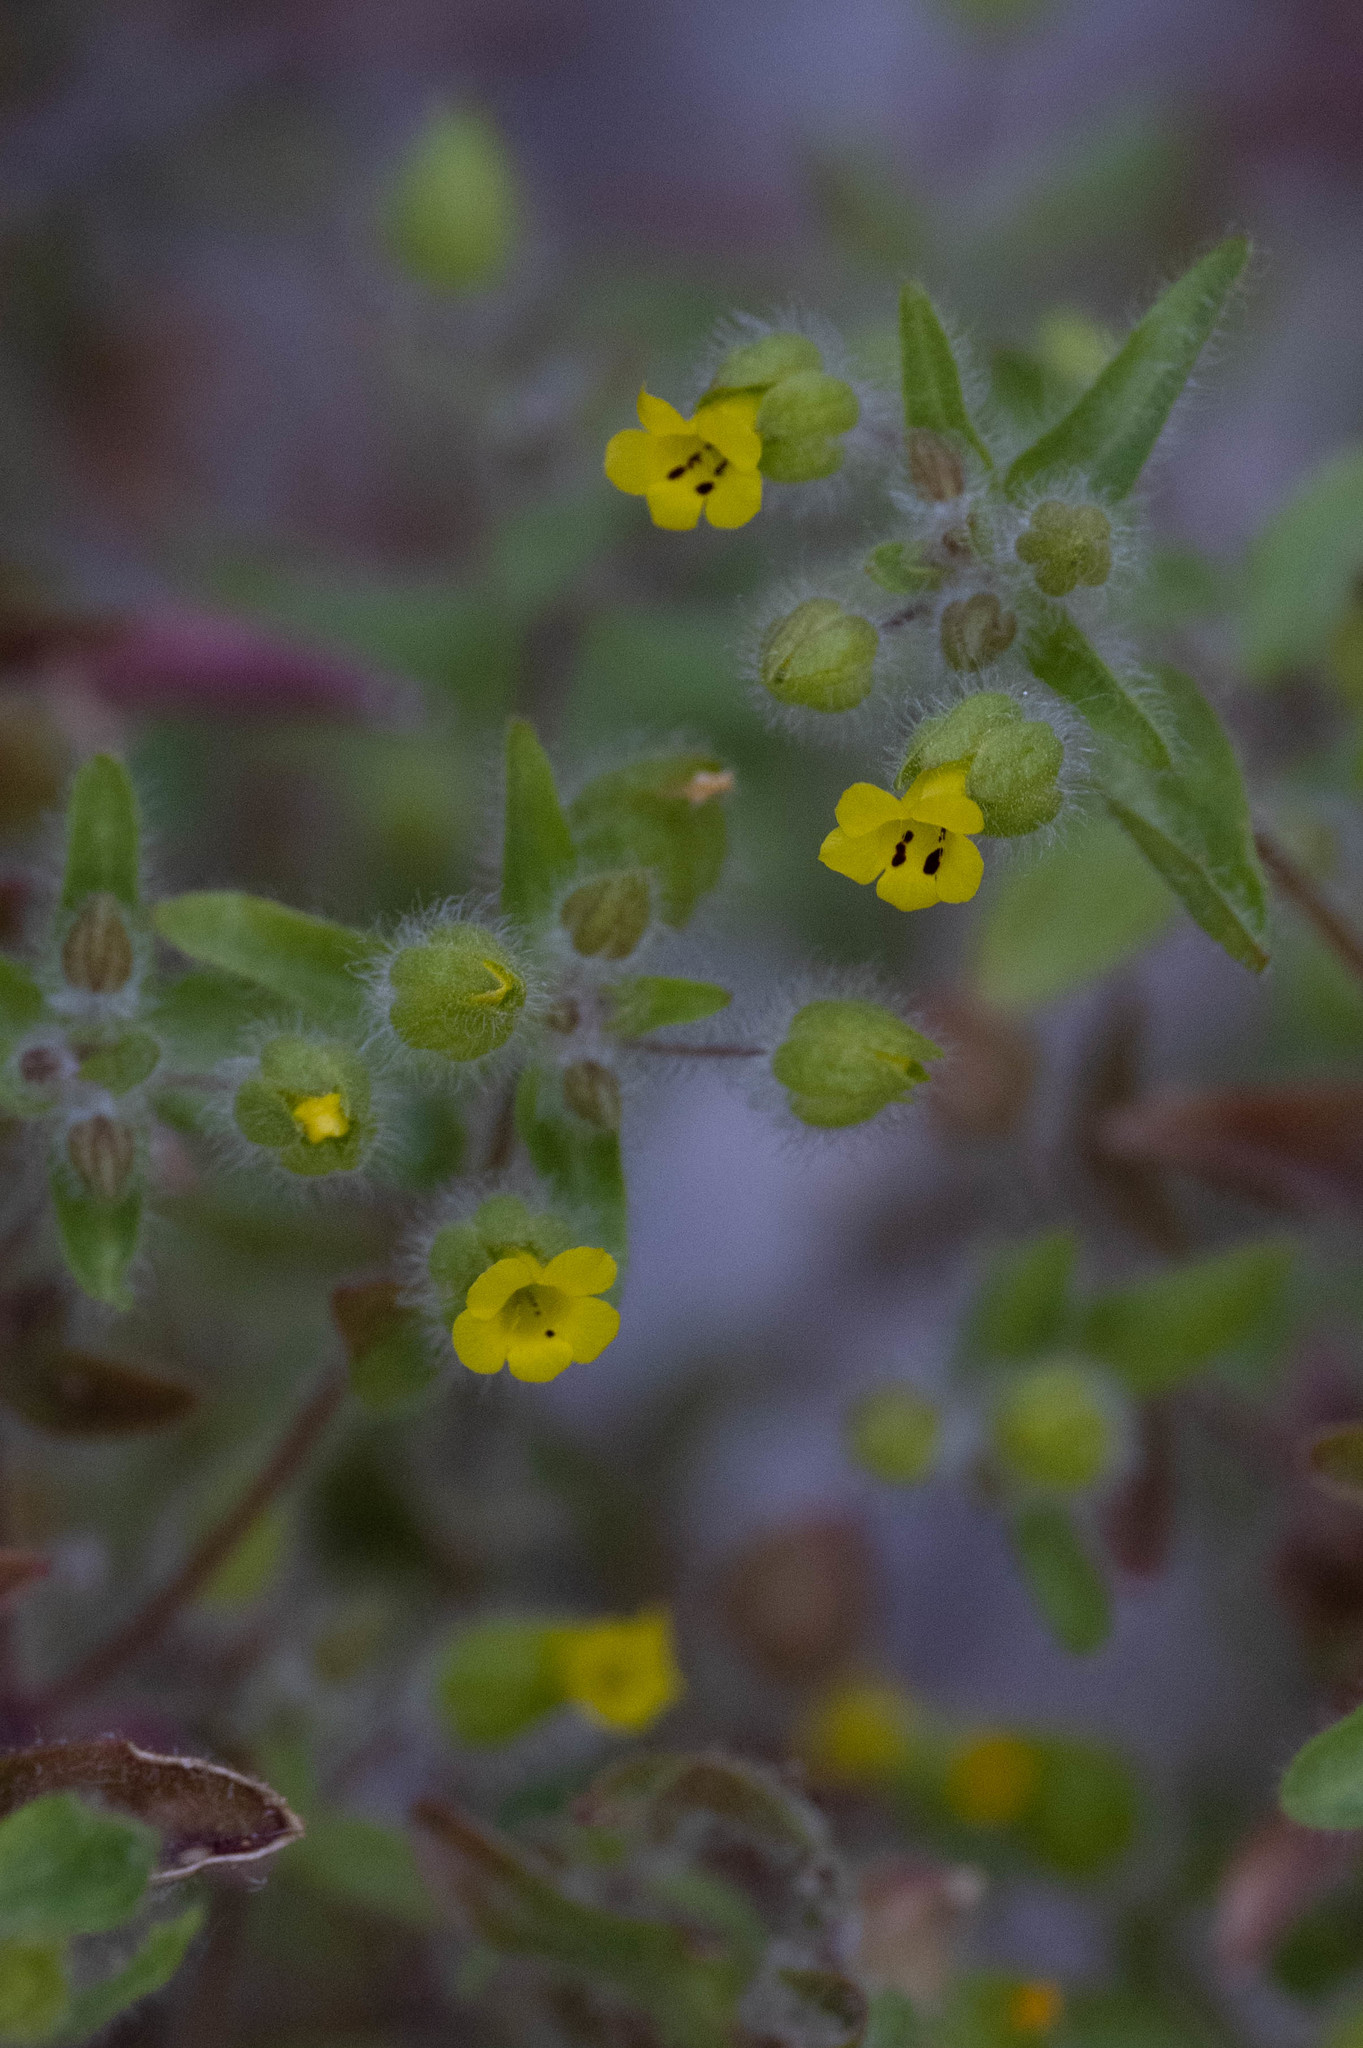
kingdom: Plantae
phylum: Tracheophyta
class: Magnoliopsida
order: Lamiales
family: Phrymaceae
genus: Mimetanthe
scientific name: Mimetanthe pilosa
